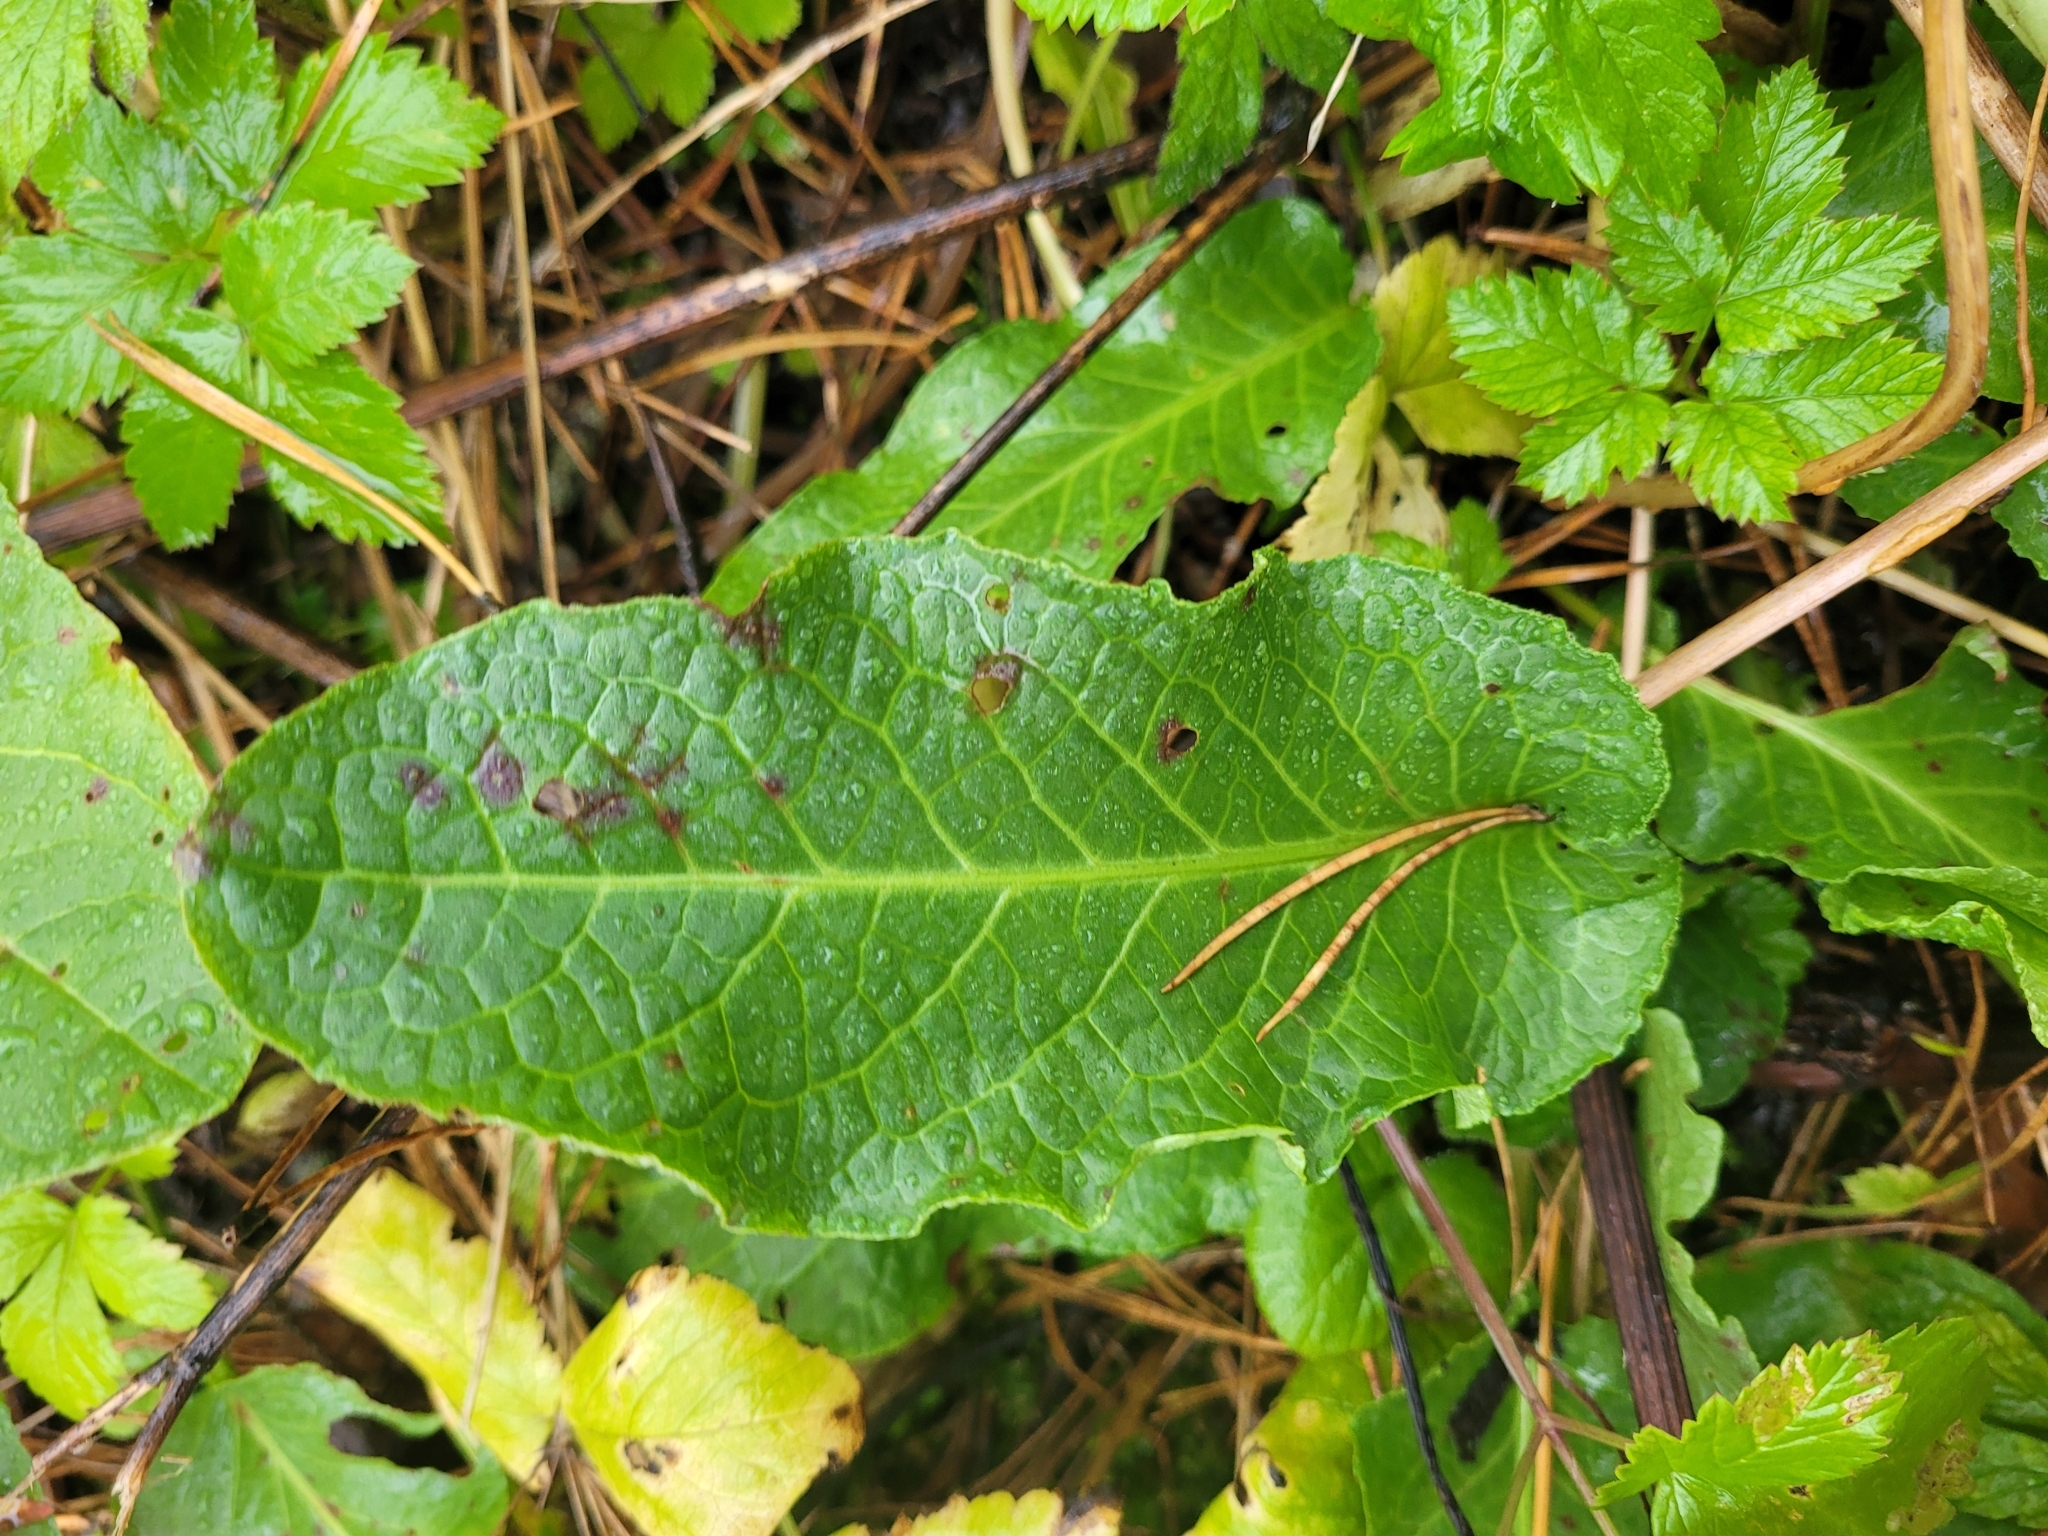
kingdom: Plantae
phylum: Tracheophyta
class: Magnoliopsida
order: Caryophyllales
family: Polygonaceae
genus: Rumex
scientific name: Rumex obtusifolius
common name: Bitter dock
